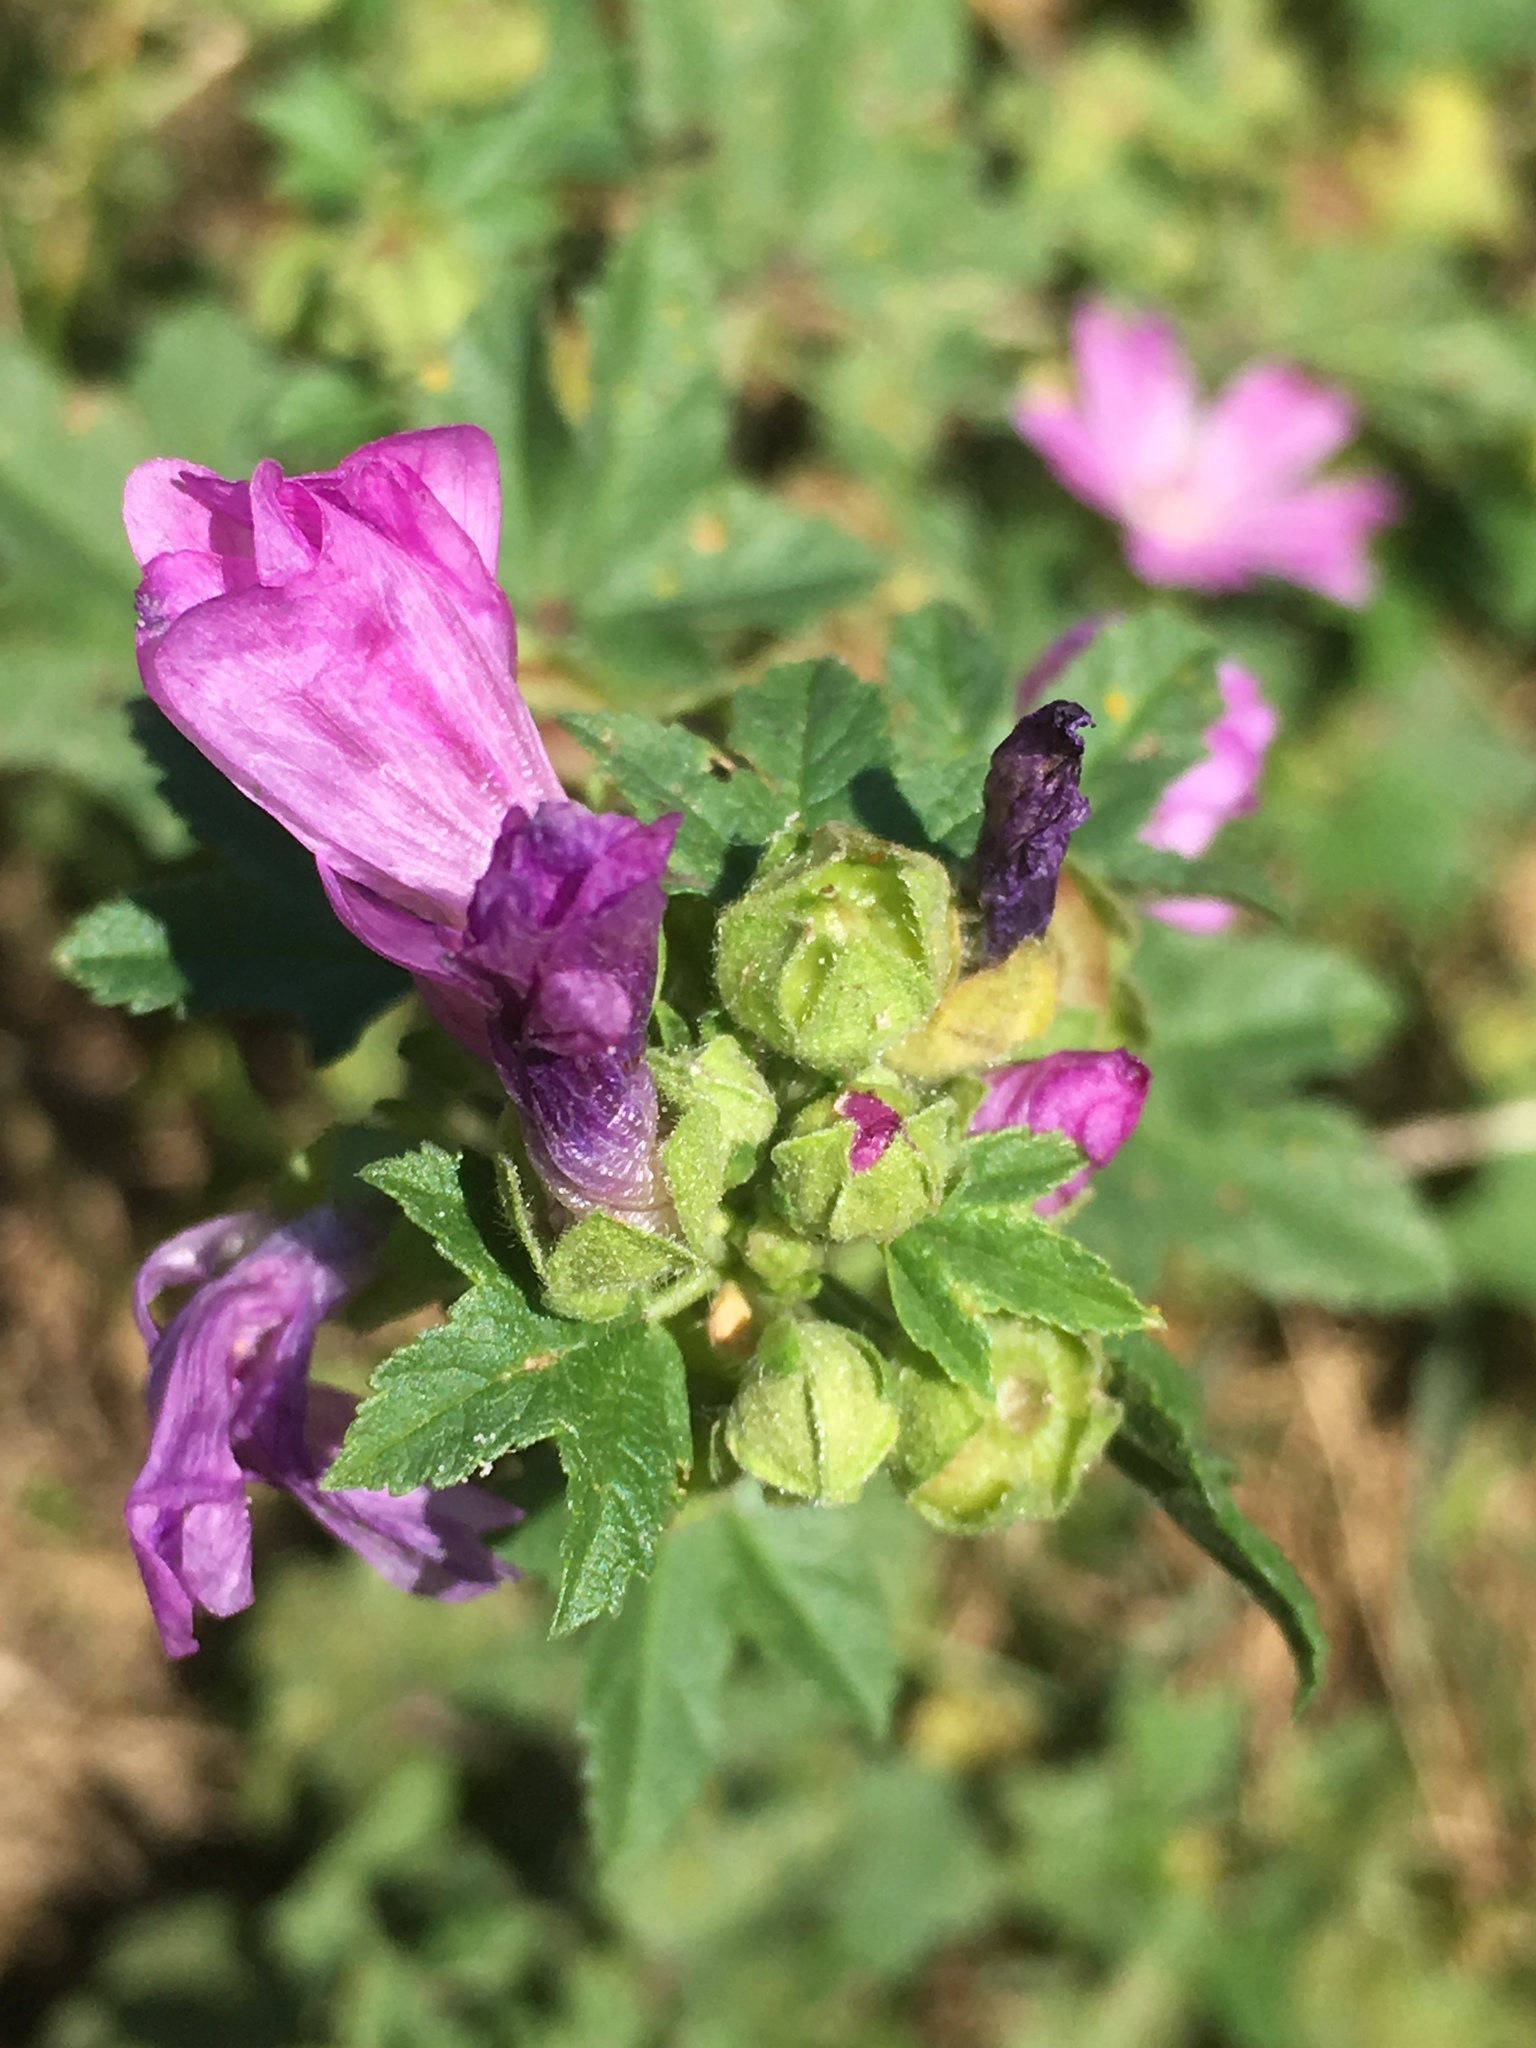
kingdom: Plantae
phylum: Tracheophyta
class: Magnoliopsida
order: Malvales
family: Malvaceae
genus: Malva
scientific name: Malva sylvestris
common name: Common mallow
